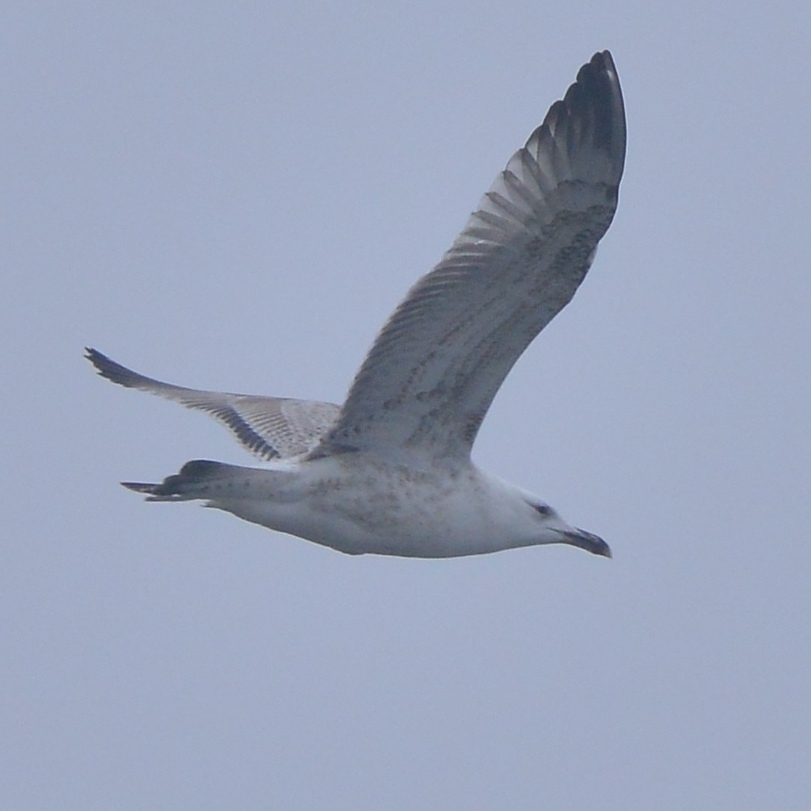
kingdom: Animalia
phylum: Chordata
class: Aves
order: Charadriiformes
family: Laridae
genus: Larus
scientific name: Larus cachinnans
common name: Caspian gull
